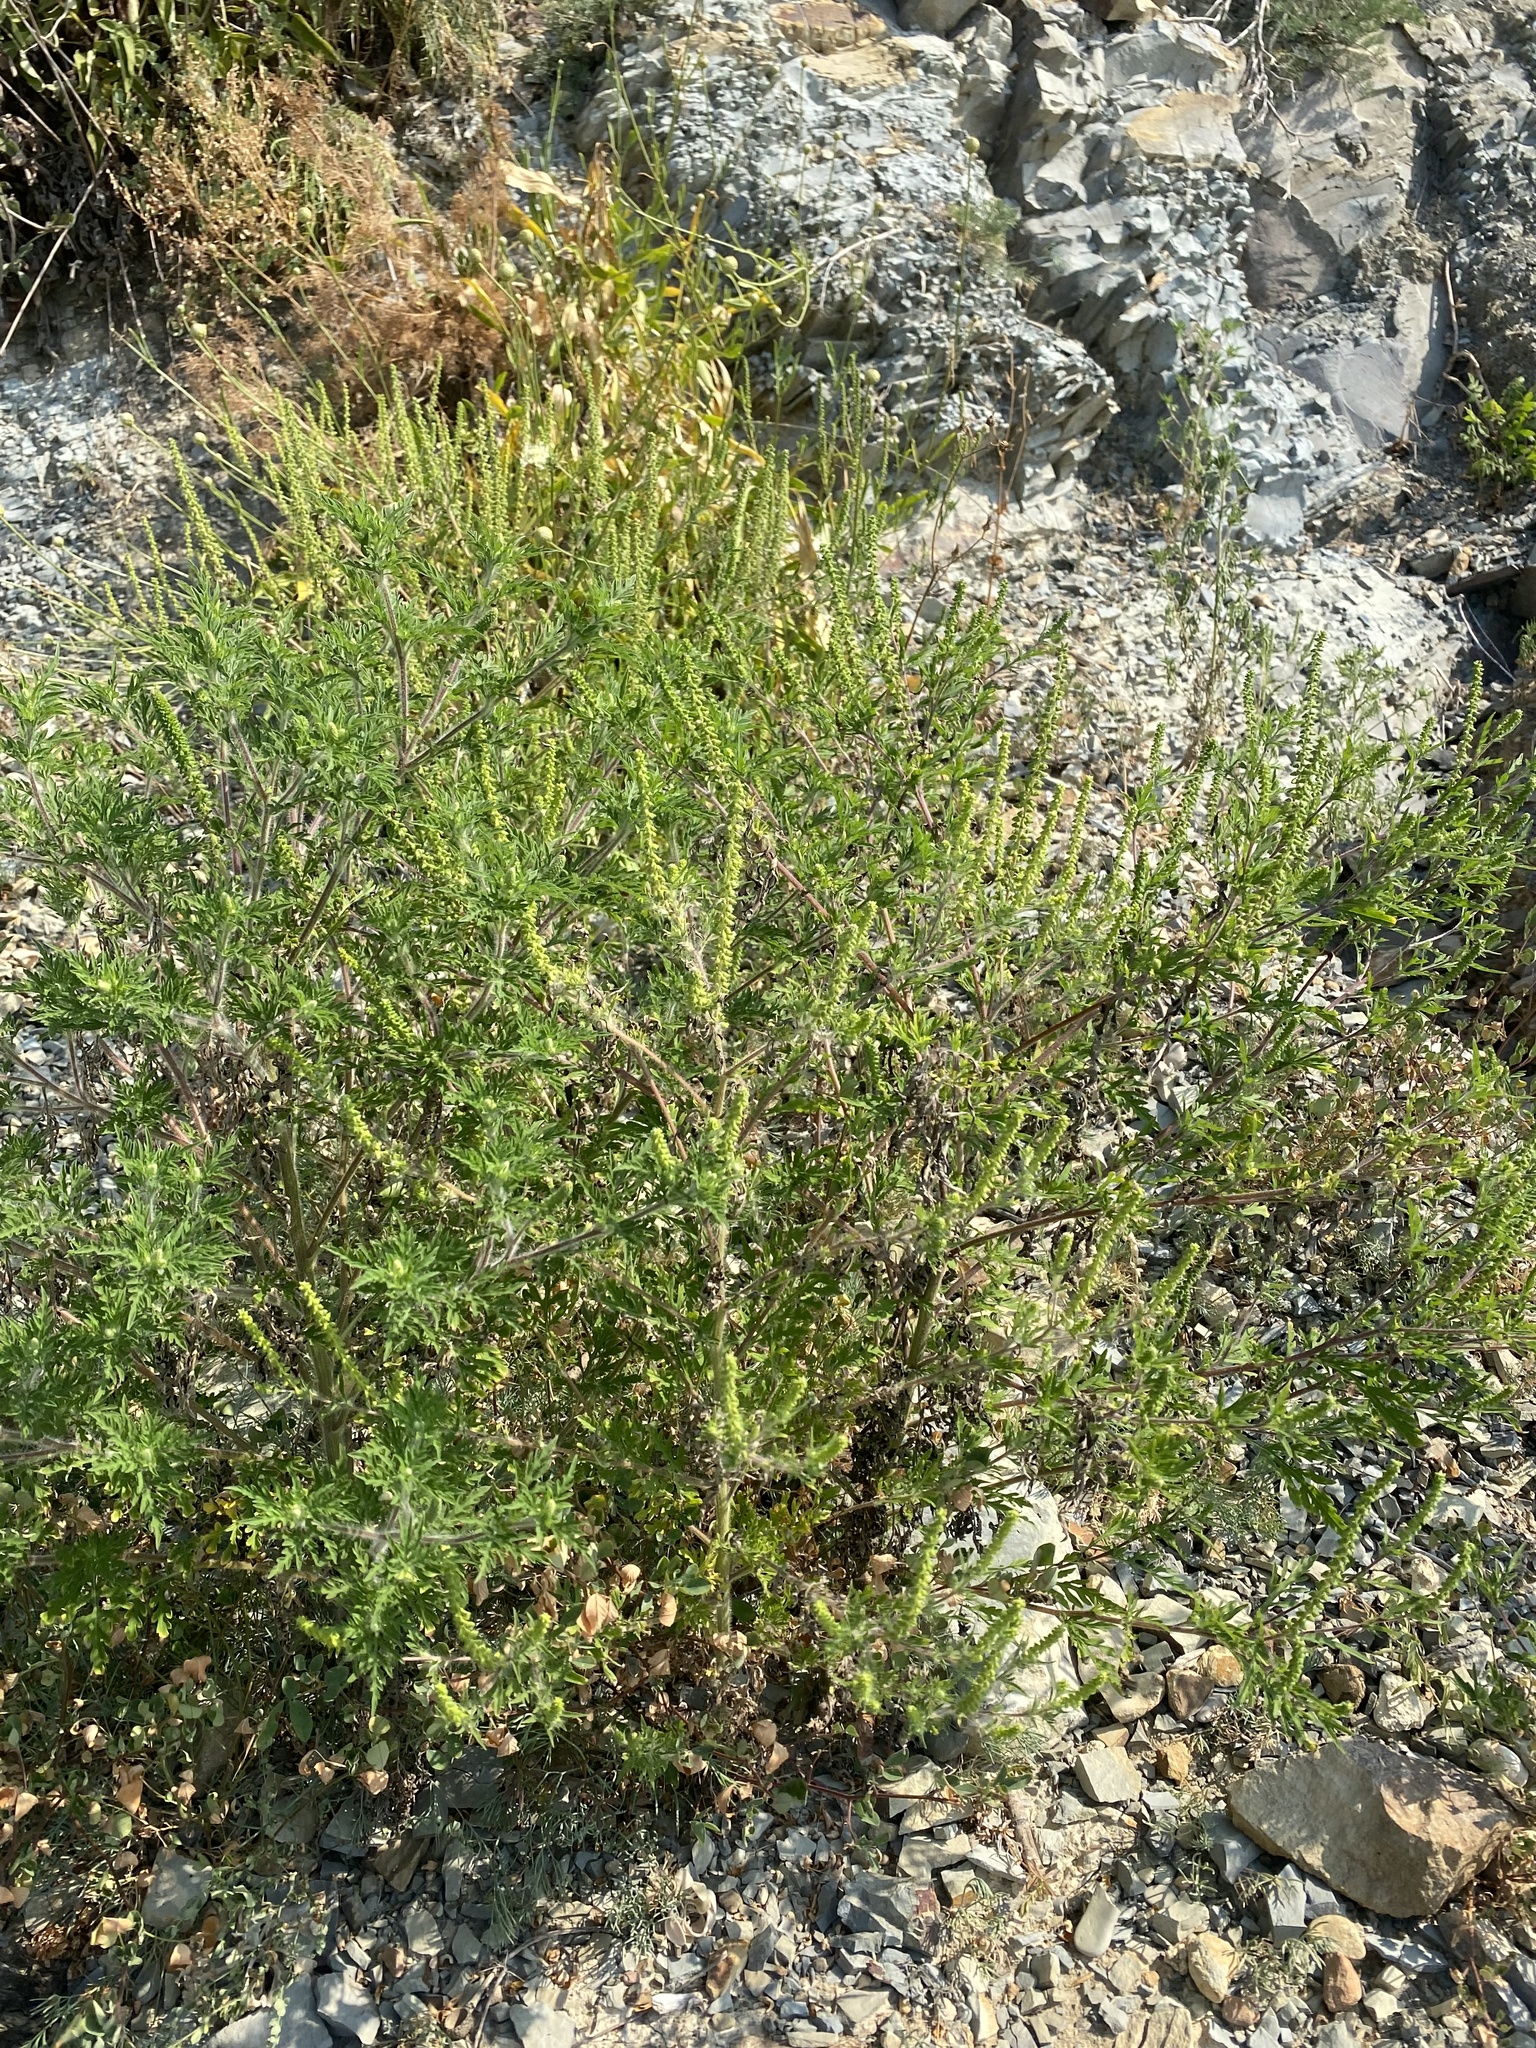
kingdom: Plantae
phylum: Tracheophyta
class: Magnoliopsida
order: Asterales
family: Asteraceae
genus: Ambrosia
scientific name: Ambrosia artemisiifolia
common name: Annual ragweed
